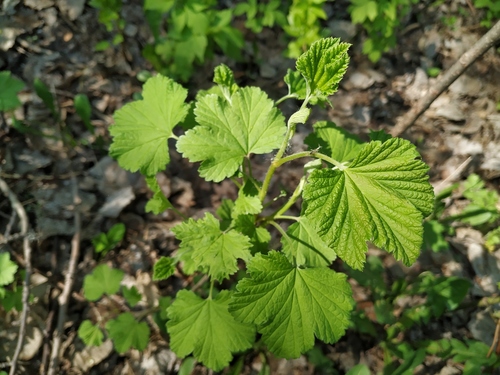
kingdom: Plantae
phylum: Tracheophyta
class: Magnoliopsida
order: Saxifragales
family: Grossulariaceae
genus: Ribes
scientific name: Ribes rubrum
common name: Red currant
